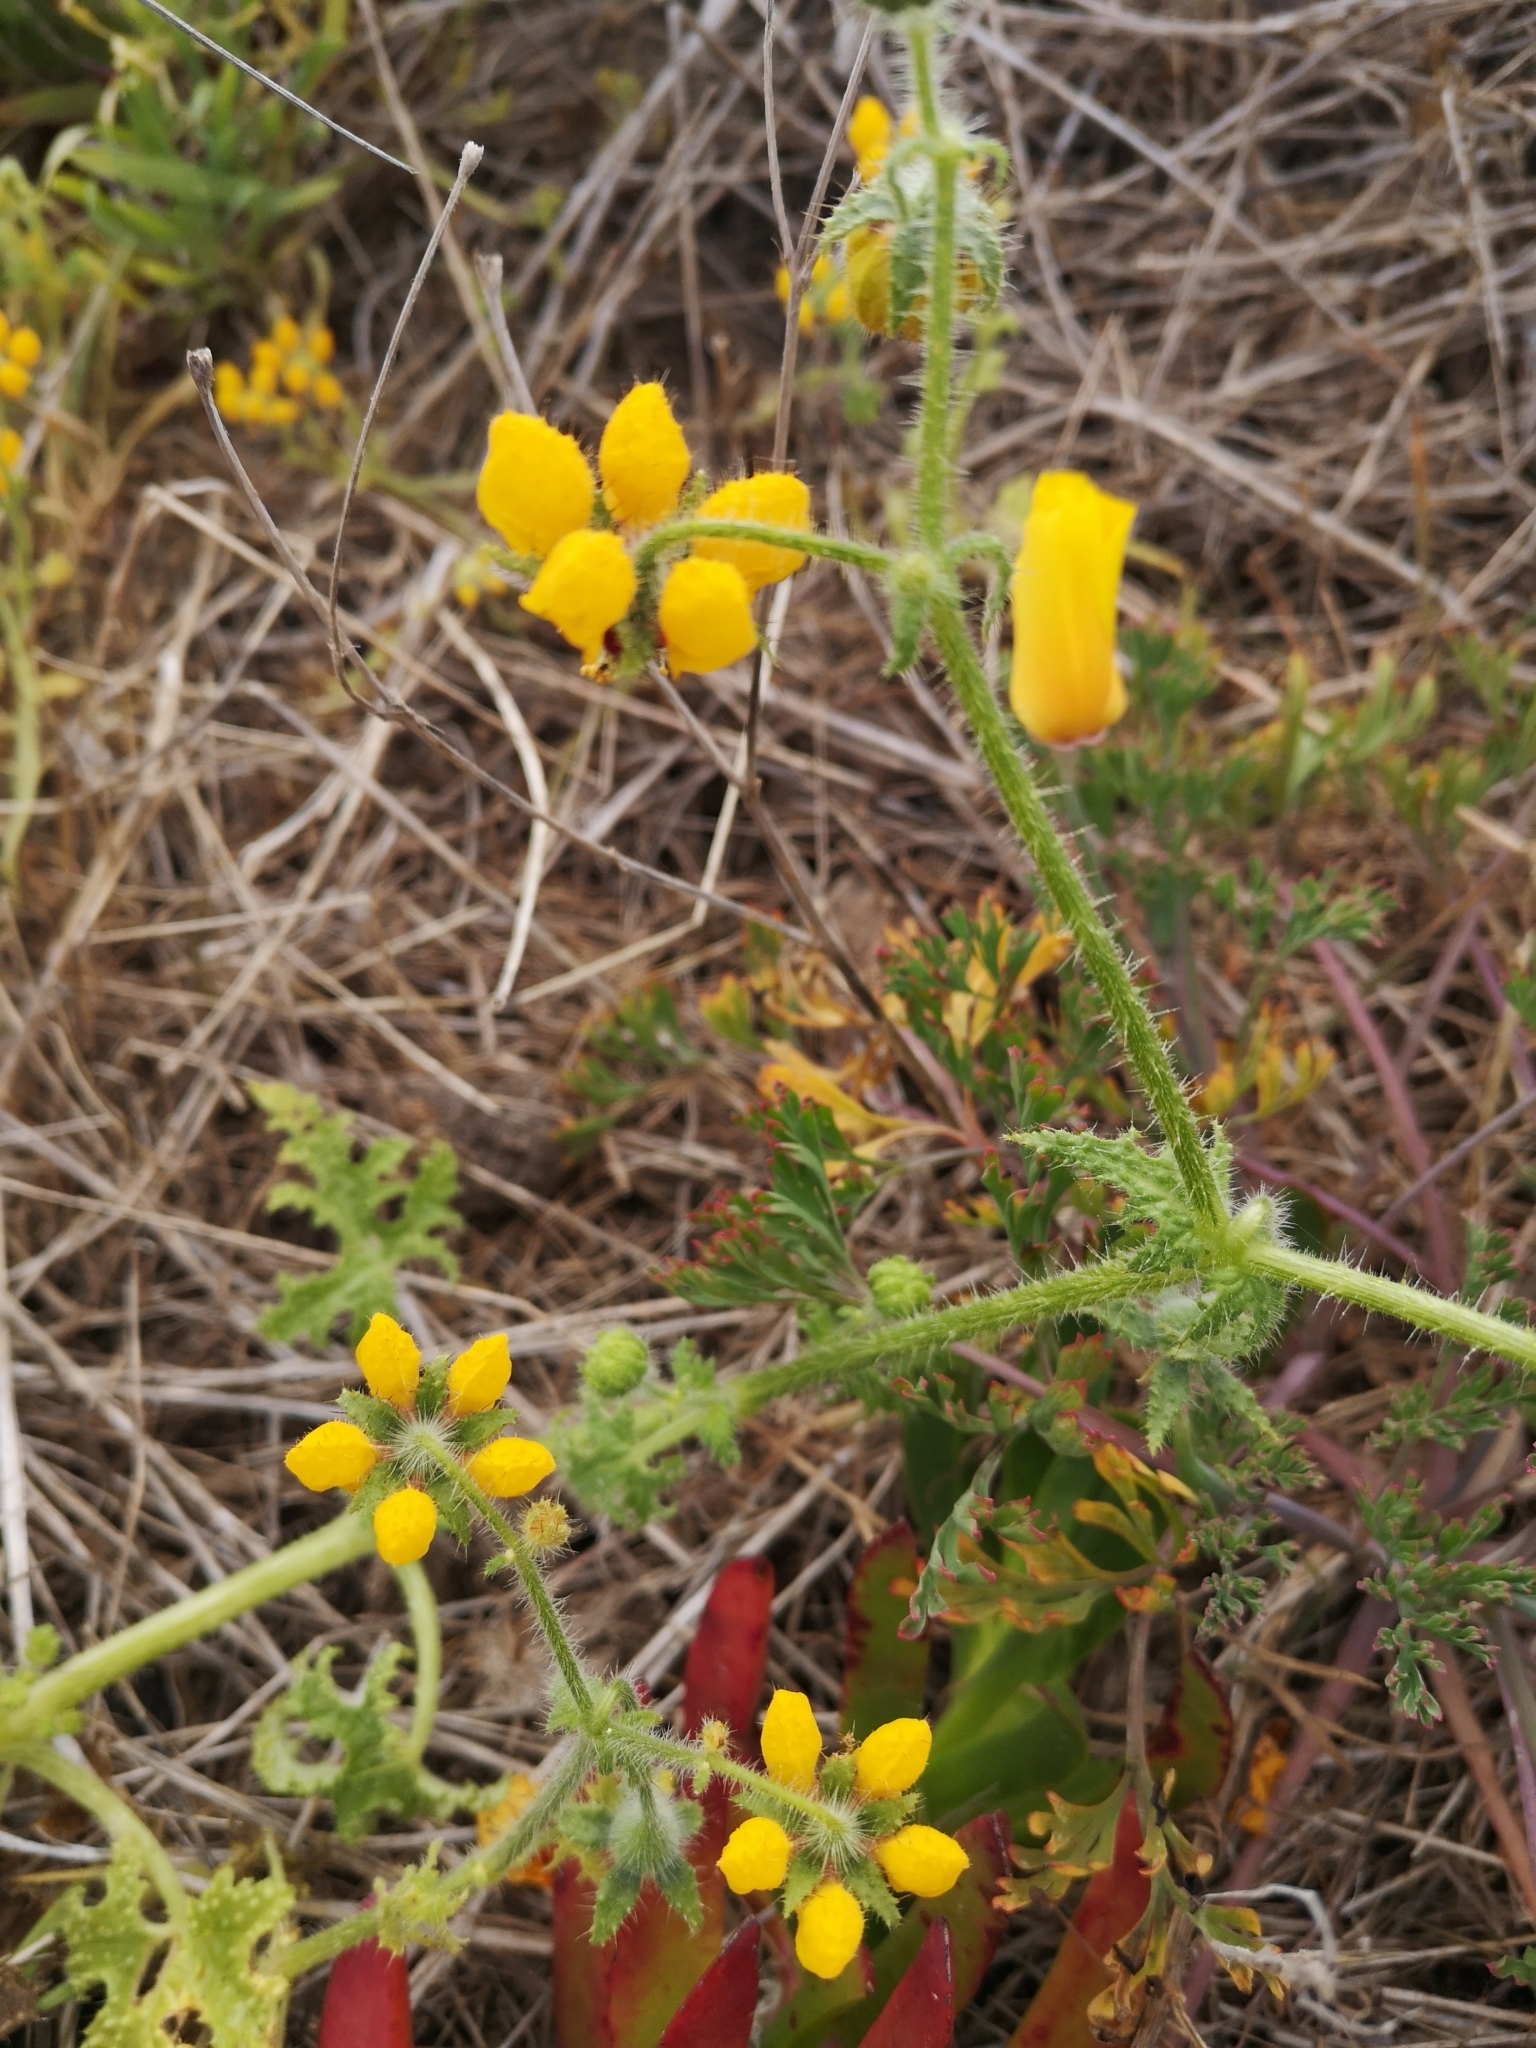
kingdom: Plantae
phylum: Tracheophyta
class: Magnoliopsida
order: Cornales
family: Loasaceae
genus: Loasa
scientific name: Loasa tricolor
